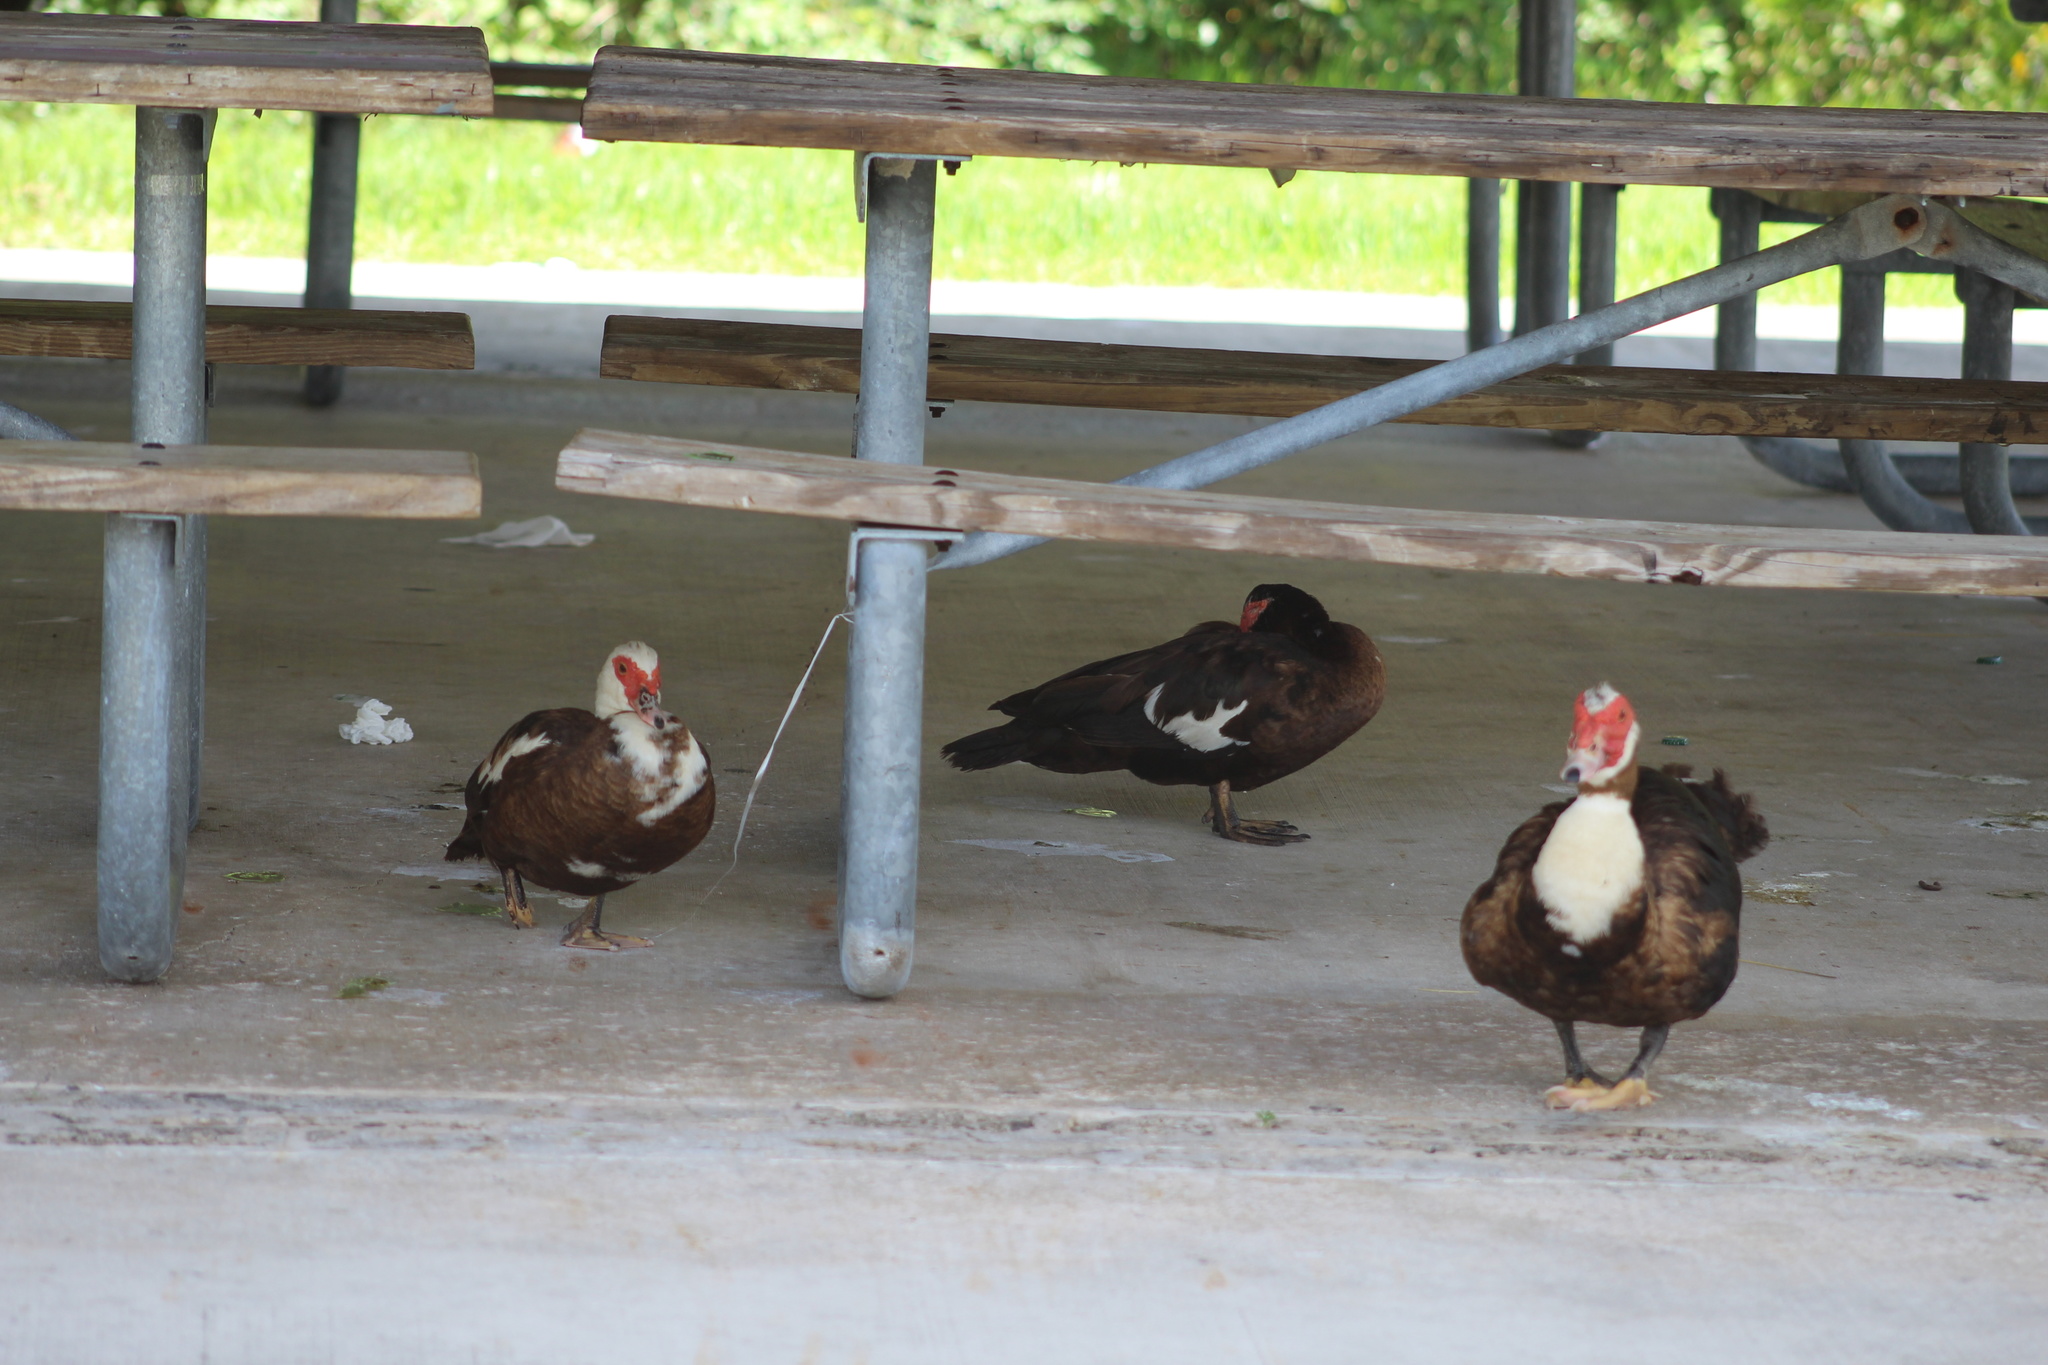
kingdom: Animalia
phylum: Chordata
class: Aves
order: Anseriformes
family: Anatidae
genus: Cairina
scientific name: Cairina moschata
